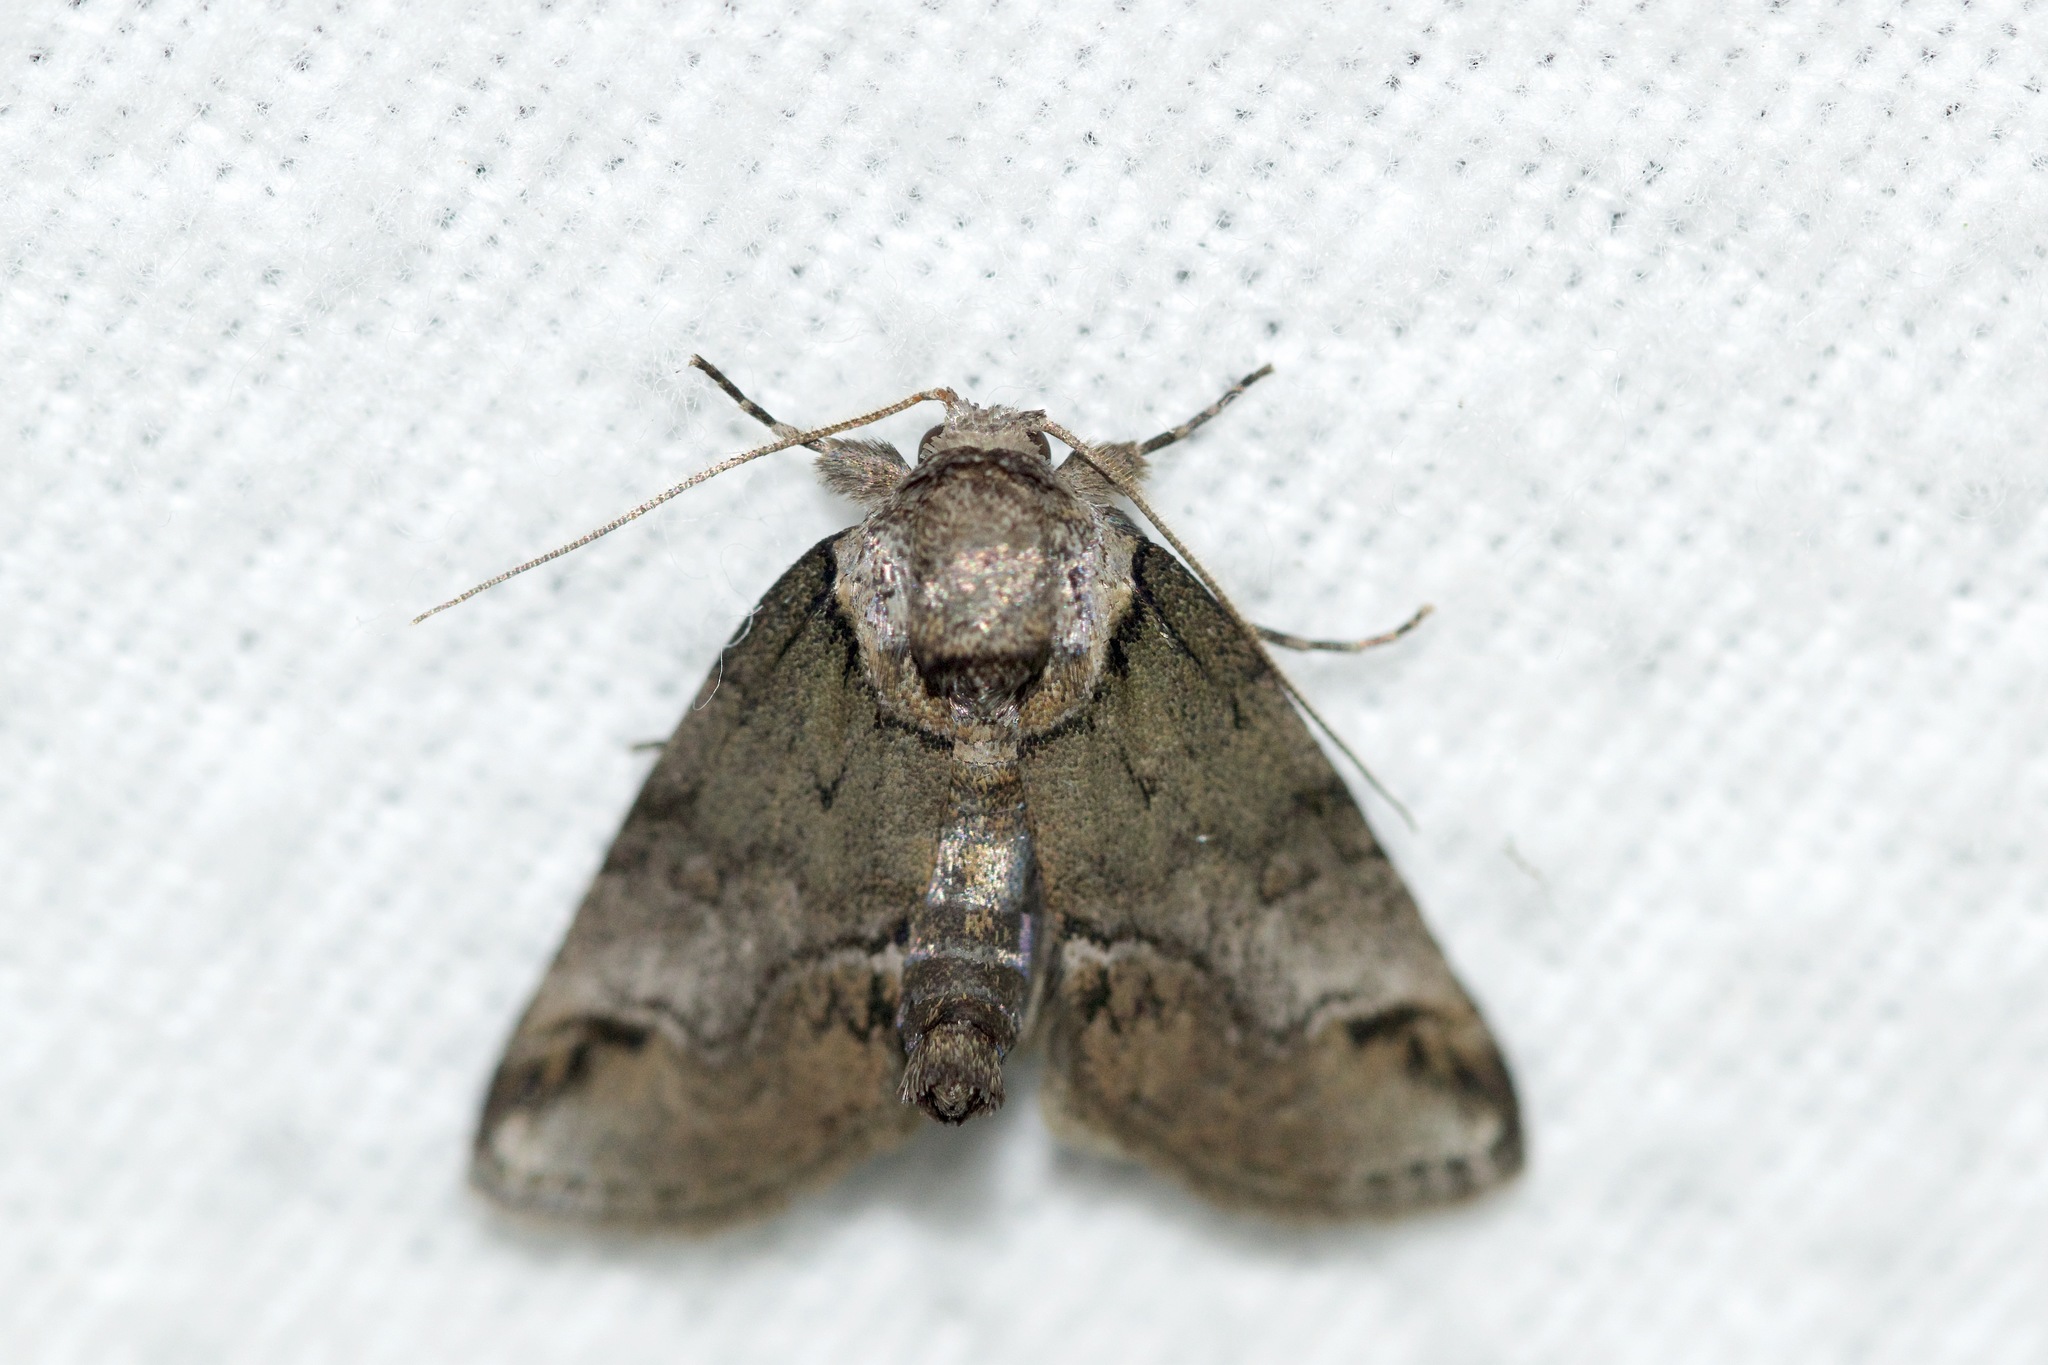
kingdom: Animalia
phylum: Arthropoda
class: Insecta
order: Lepidoptera
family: Nolidae
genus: Baileya
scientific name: Baileya australis
